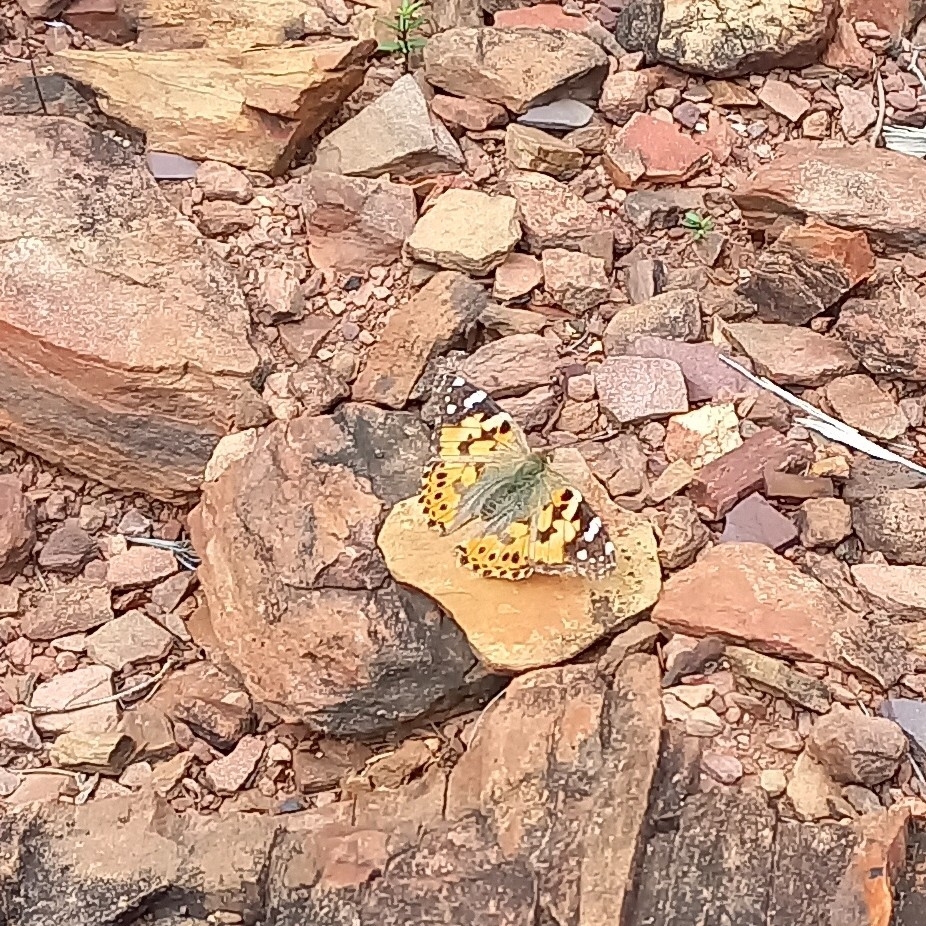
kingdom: Animalia
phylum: Arthropoda
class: Insecta
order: Lepidoptera
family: Nymphalidae
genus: Vanessa
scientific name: Vanessa cardui
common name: Painted lady
